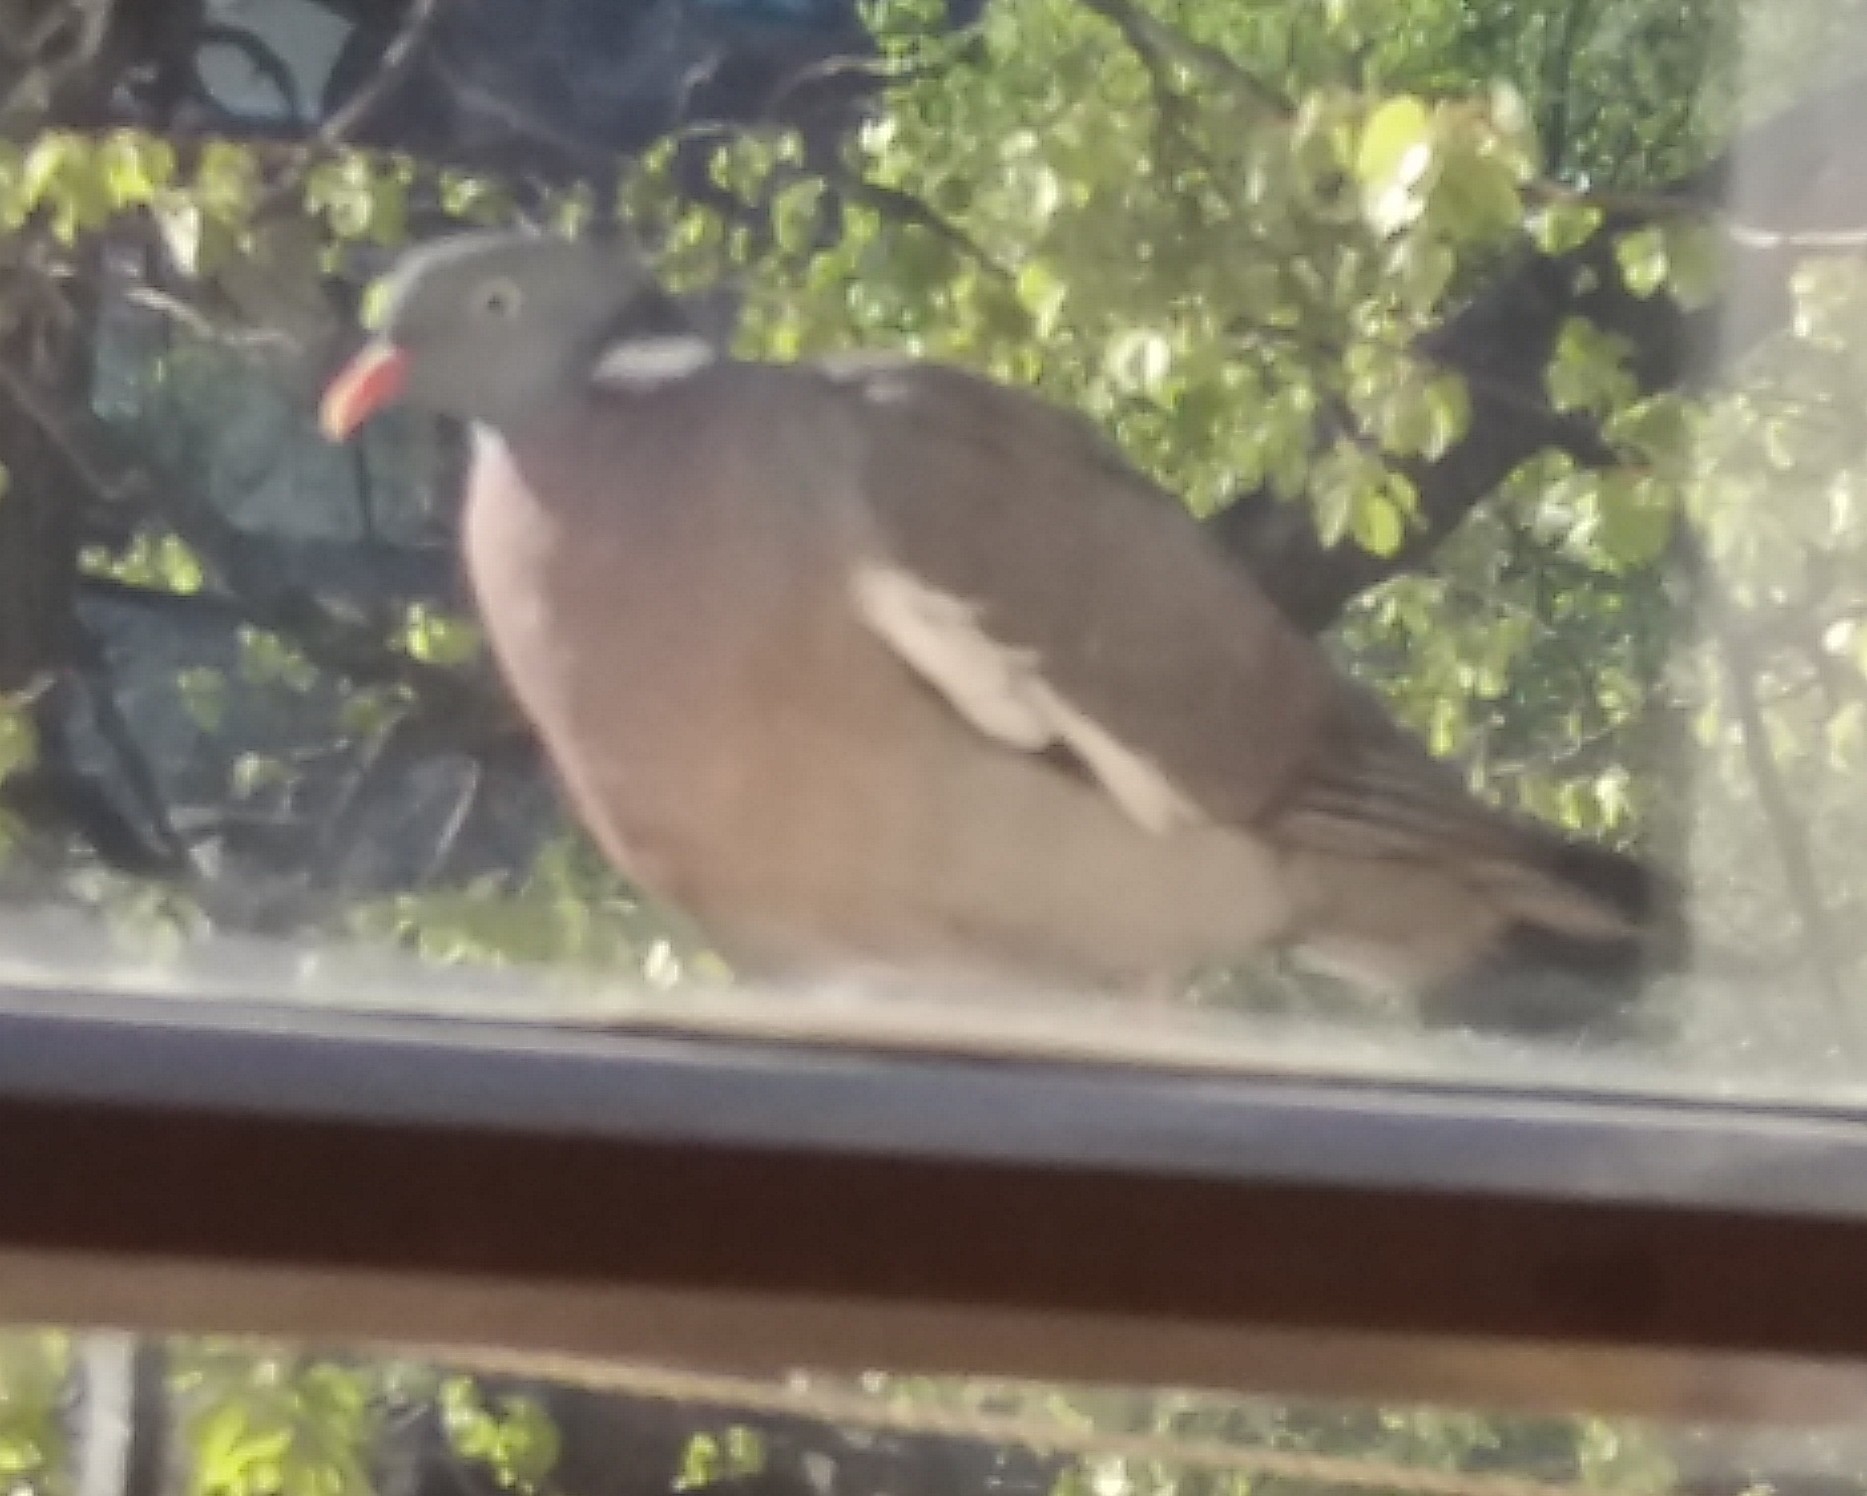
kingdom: Animalia
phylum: Chordata
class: Aves
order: Columbiformes
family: Columbidae
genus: Columba
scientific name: Columba palumbus
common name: Common wood pigeon
